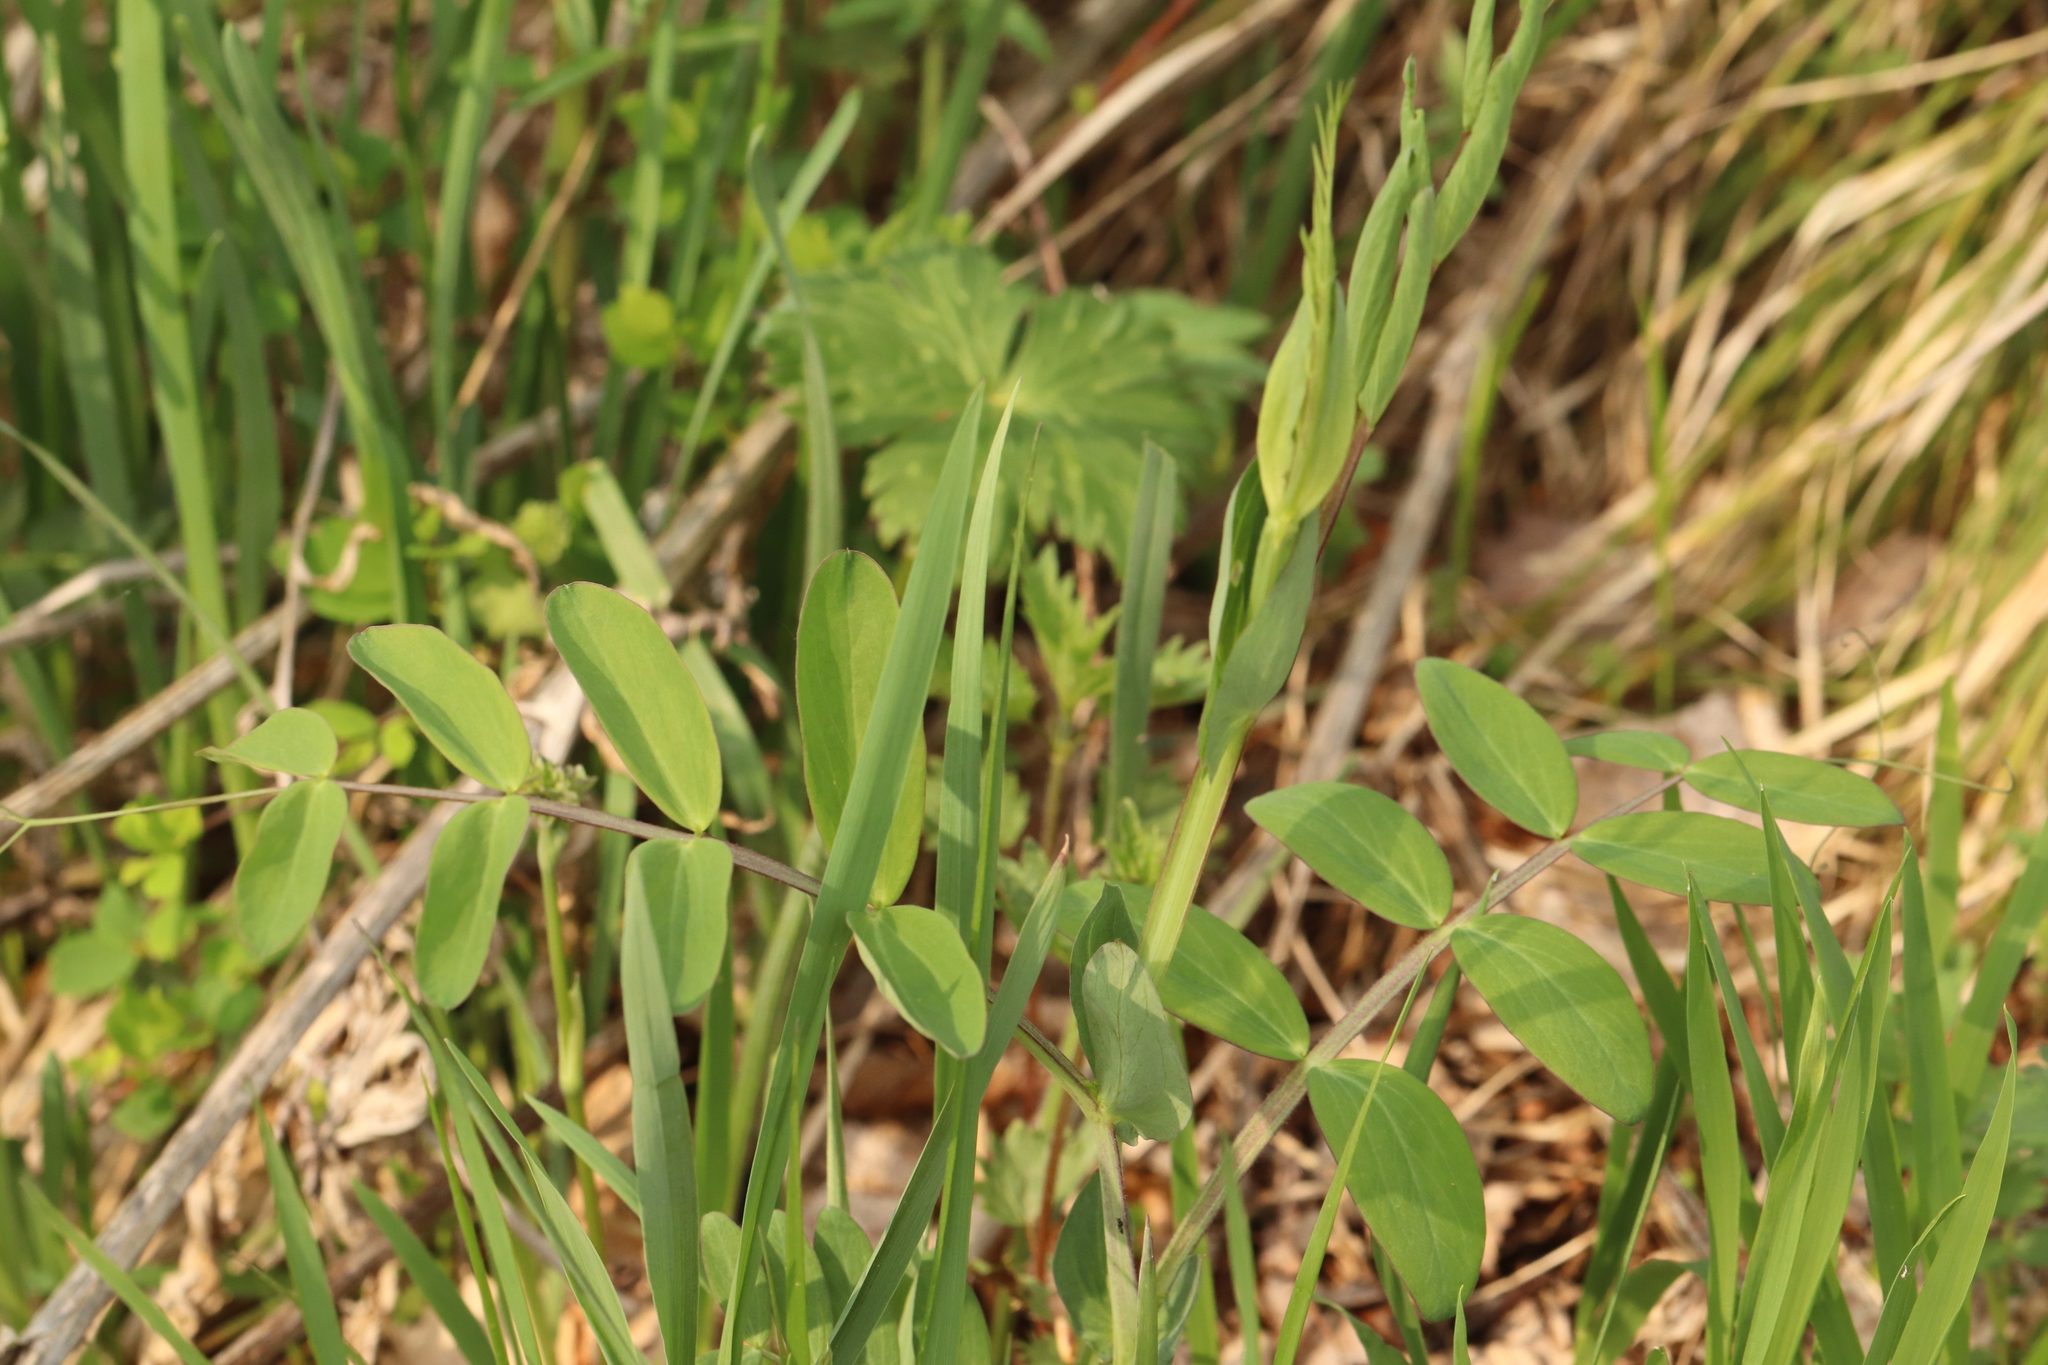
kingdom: Plantae
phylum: Tracheophyta
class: Magnoliopsida
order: Fabales
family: Fabaceae
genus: Lathyrus
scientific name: Lathyrus pisiformis
